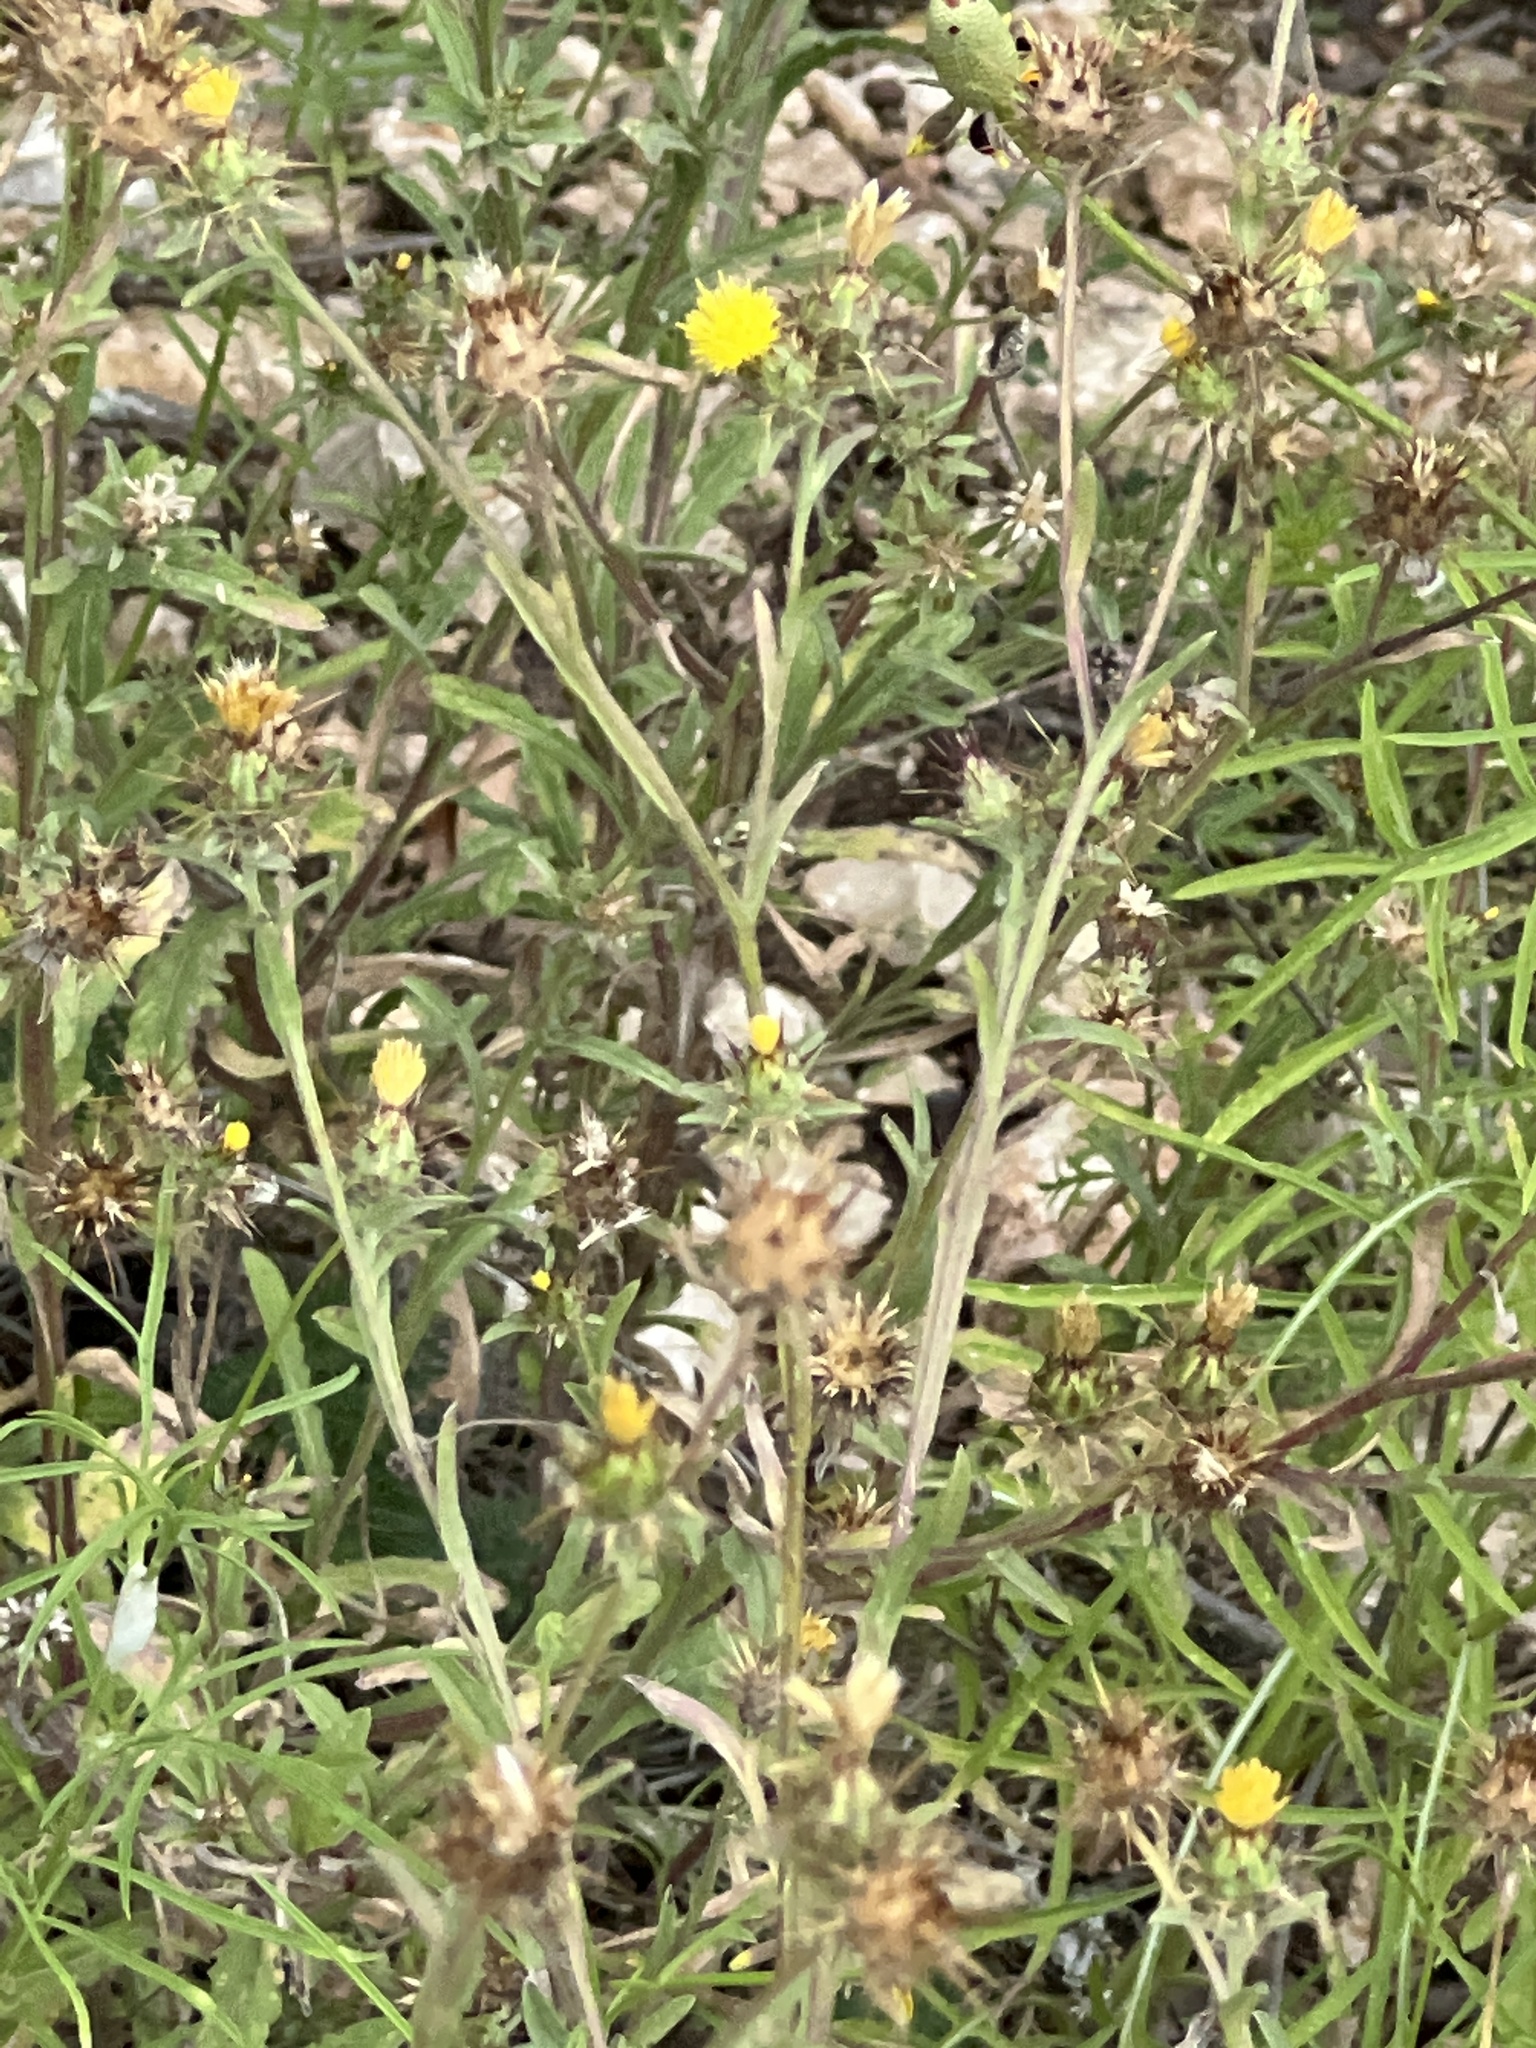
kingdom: Plantae
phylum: Tracheophyta
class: Magnoliopsida
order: Asterales
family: Asteraceae
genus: Centaurea
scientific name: Centaurea melitensis
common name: Maltese star-thistle
